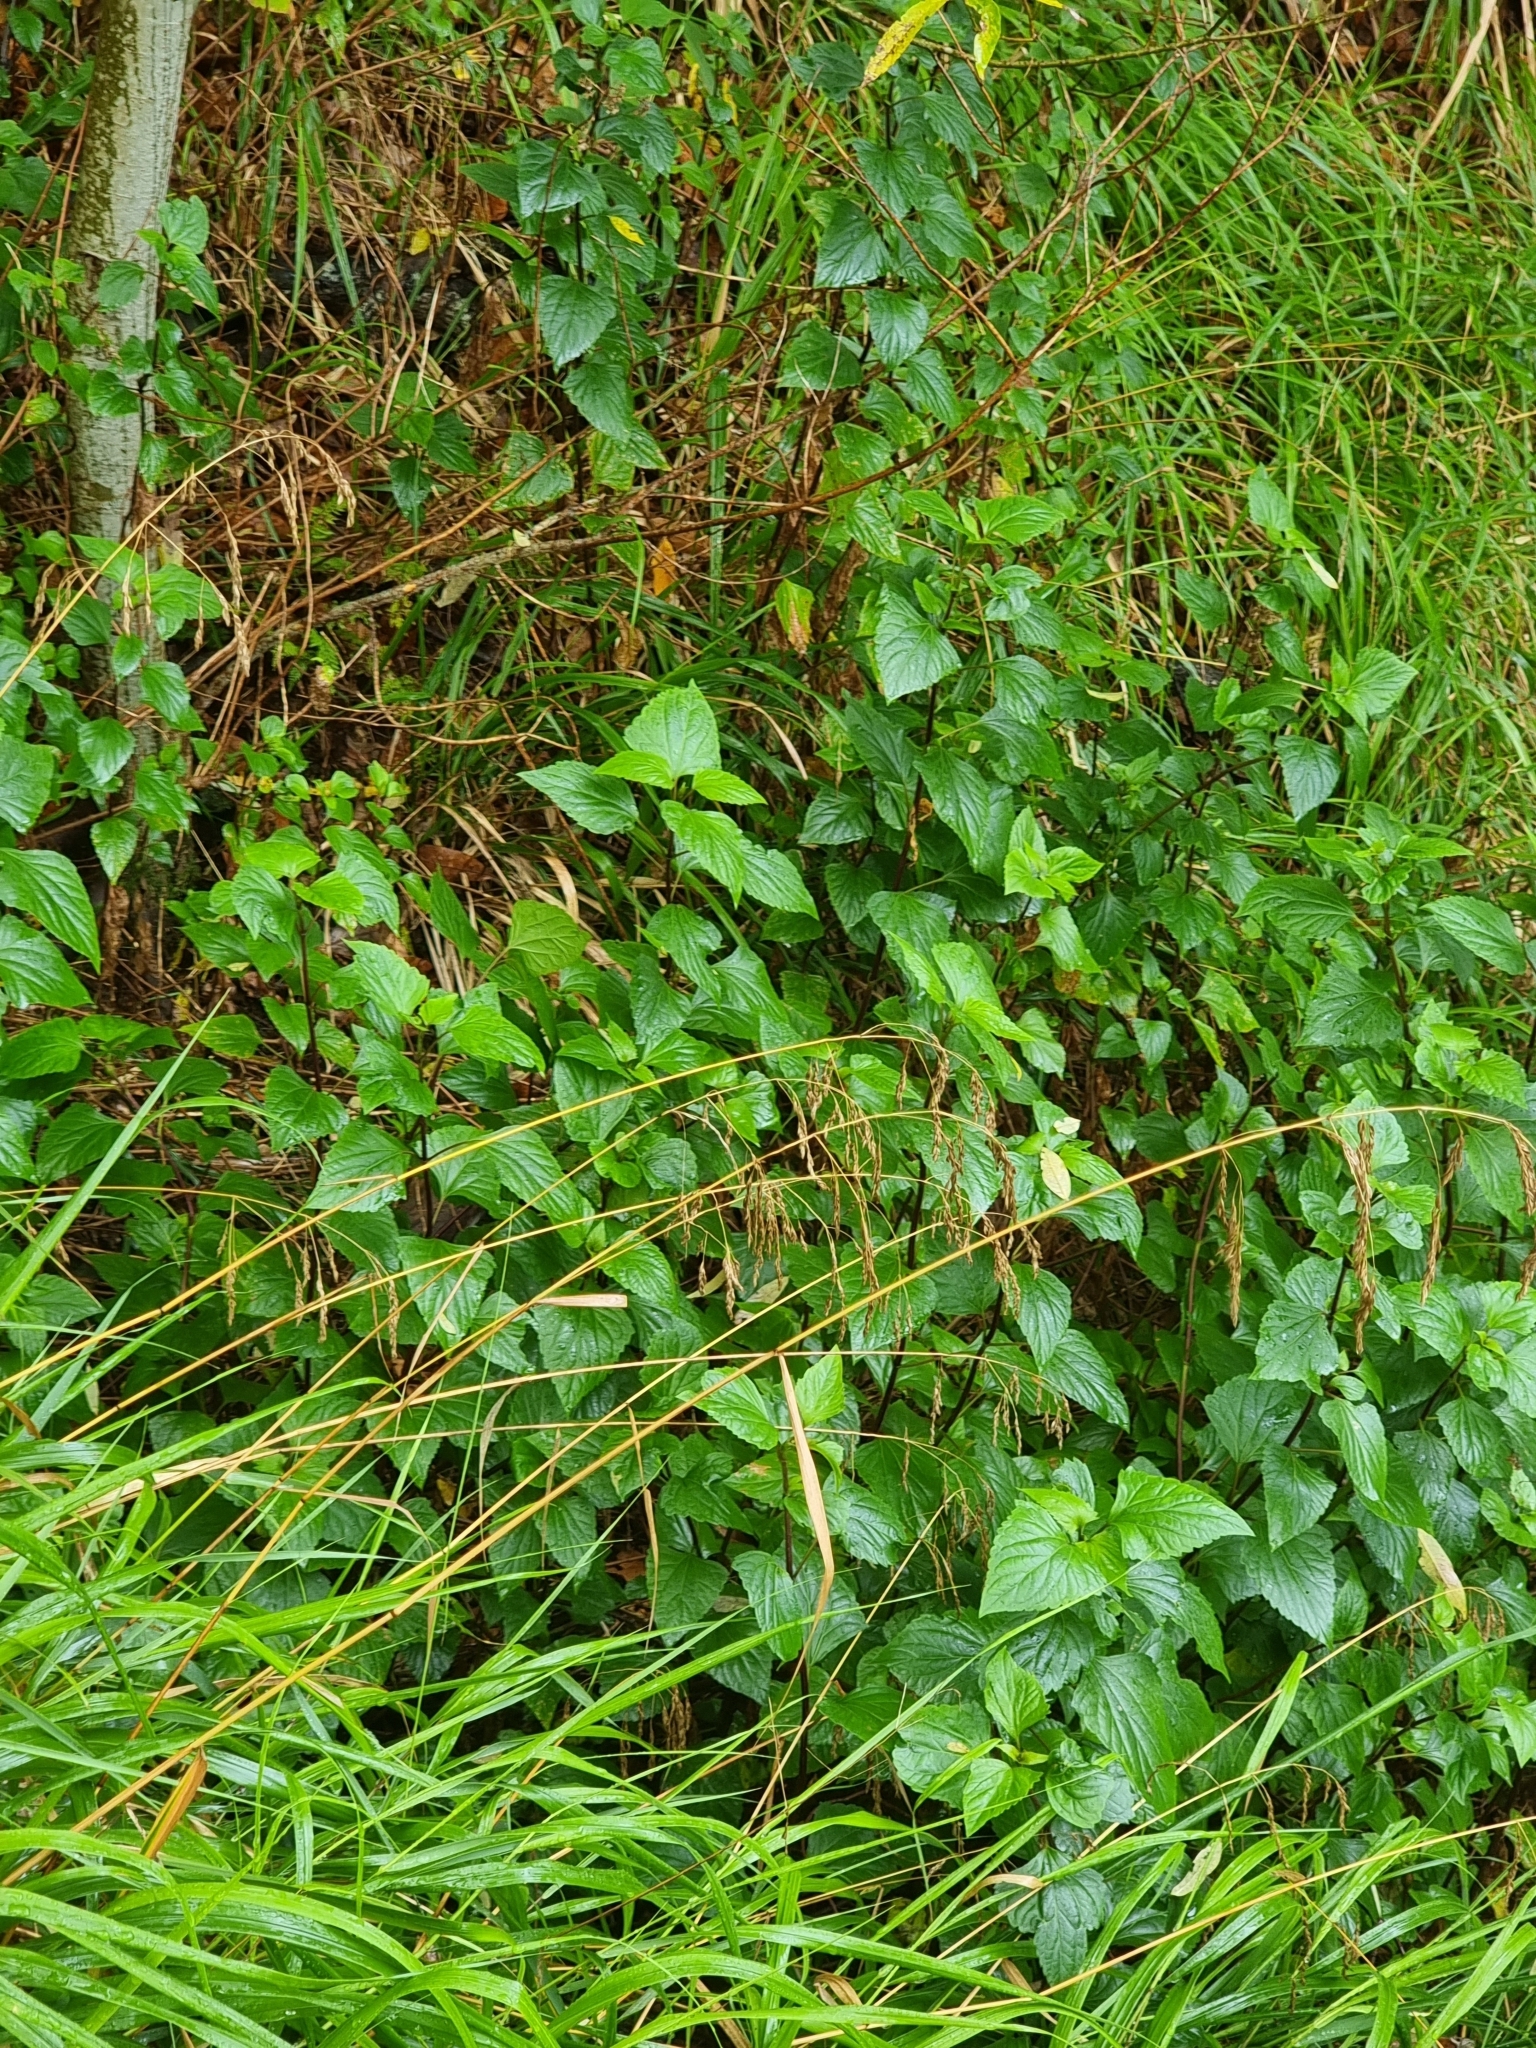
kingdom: Plantae
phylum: Tracheophyta
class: Magnoliopsida
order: Asterales
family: Asteraceae
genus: Ageratina
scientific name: Ageratina adenophora
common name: Sticky snakeroot
